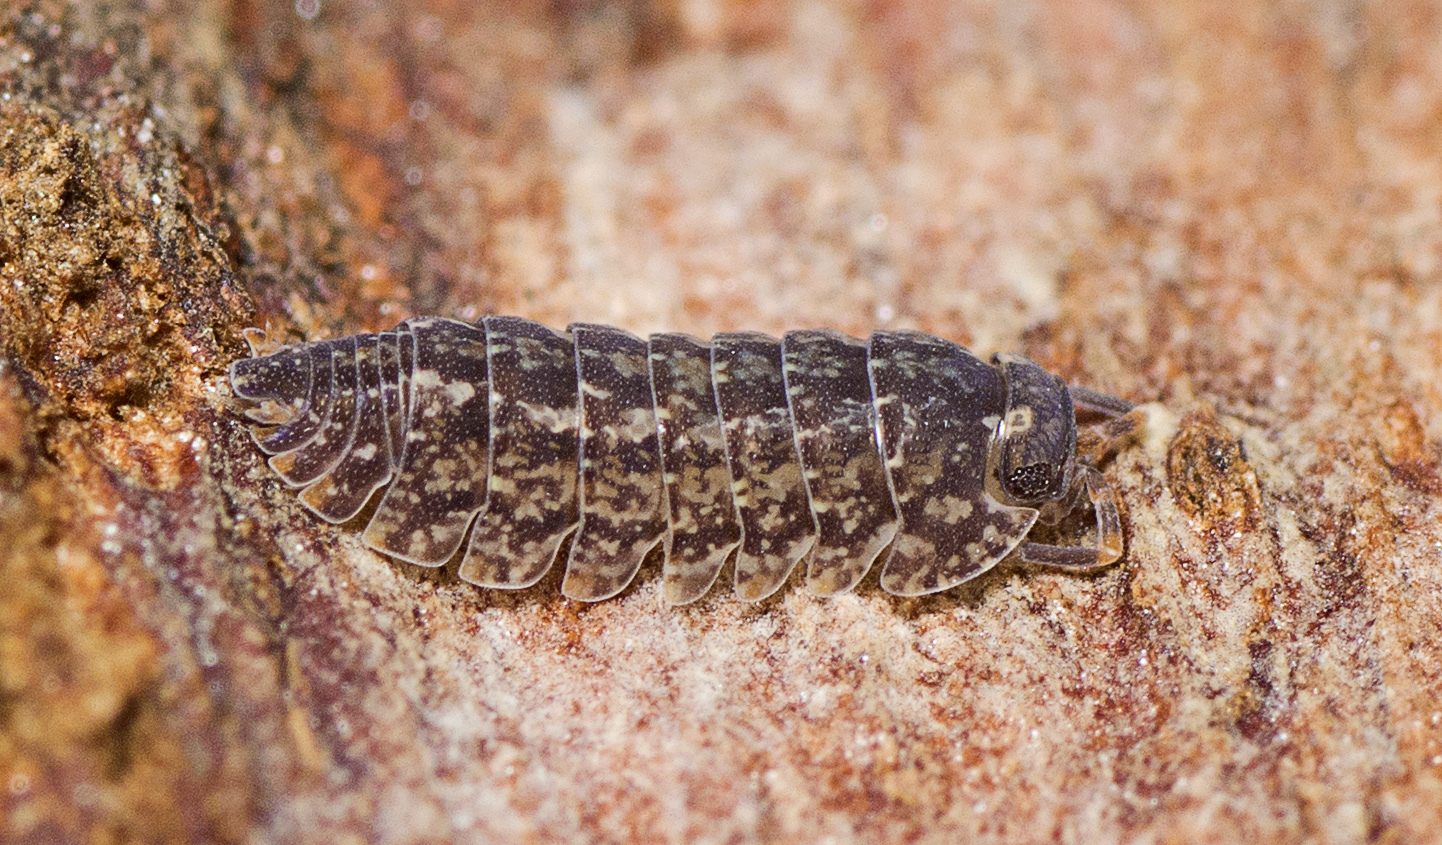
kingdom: Animalia
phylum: Arthropoda
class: Malacostraca
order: Isopoda
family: Armadillidae
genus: Cubaris
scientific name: Cubaris marmorata
